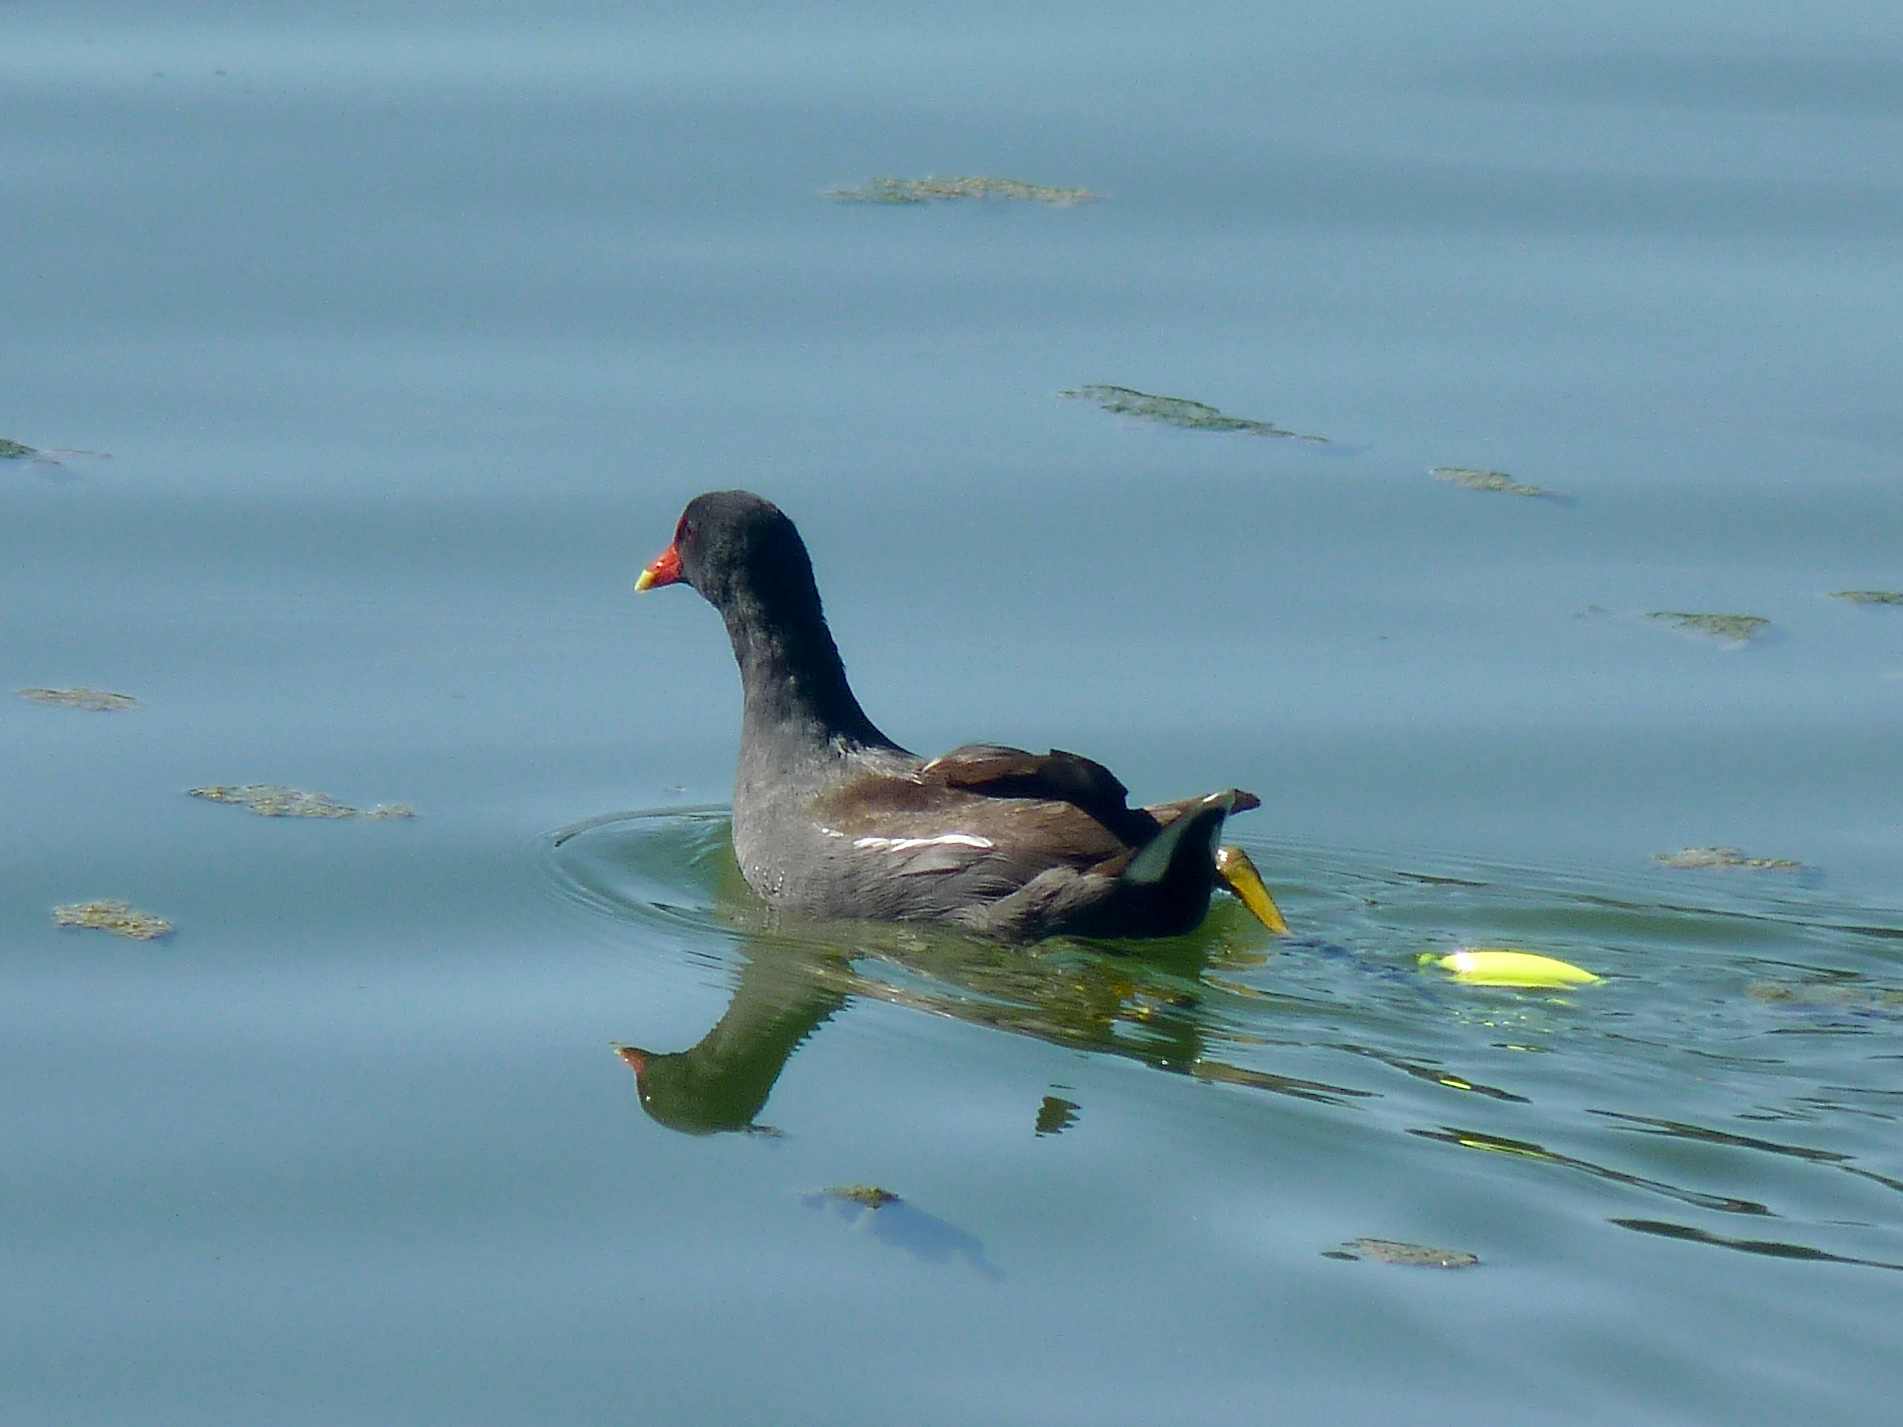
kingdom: Animalia
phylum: Chordata
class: Aves
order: Gruiformes
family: Rallidae
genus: Gallinula
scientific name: Gallinula chloropus
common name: Common moorhen
